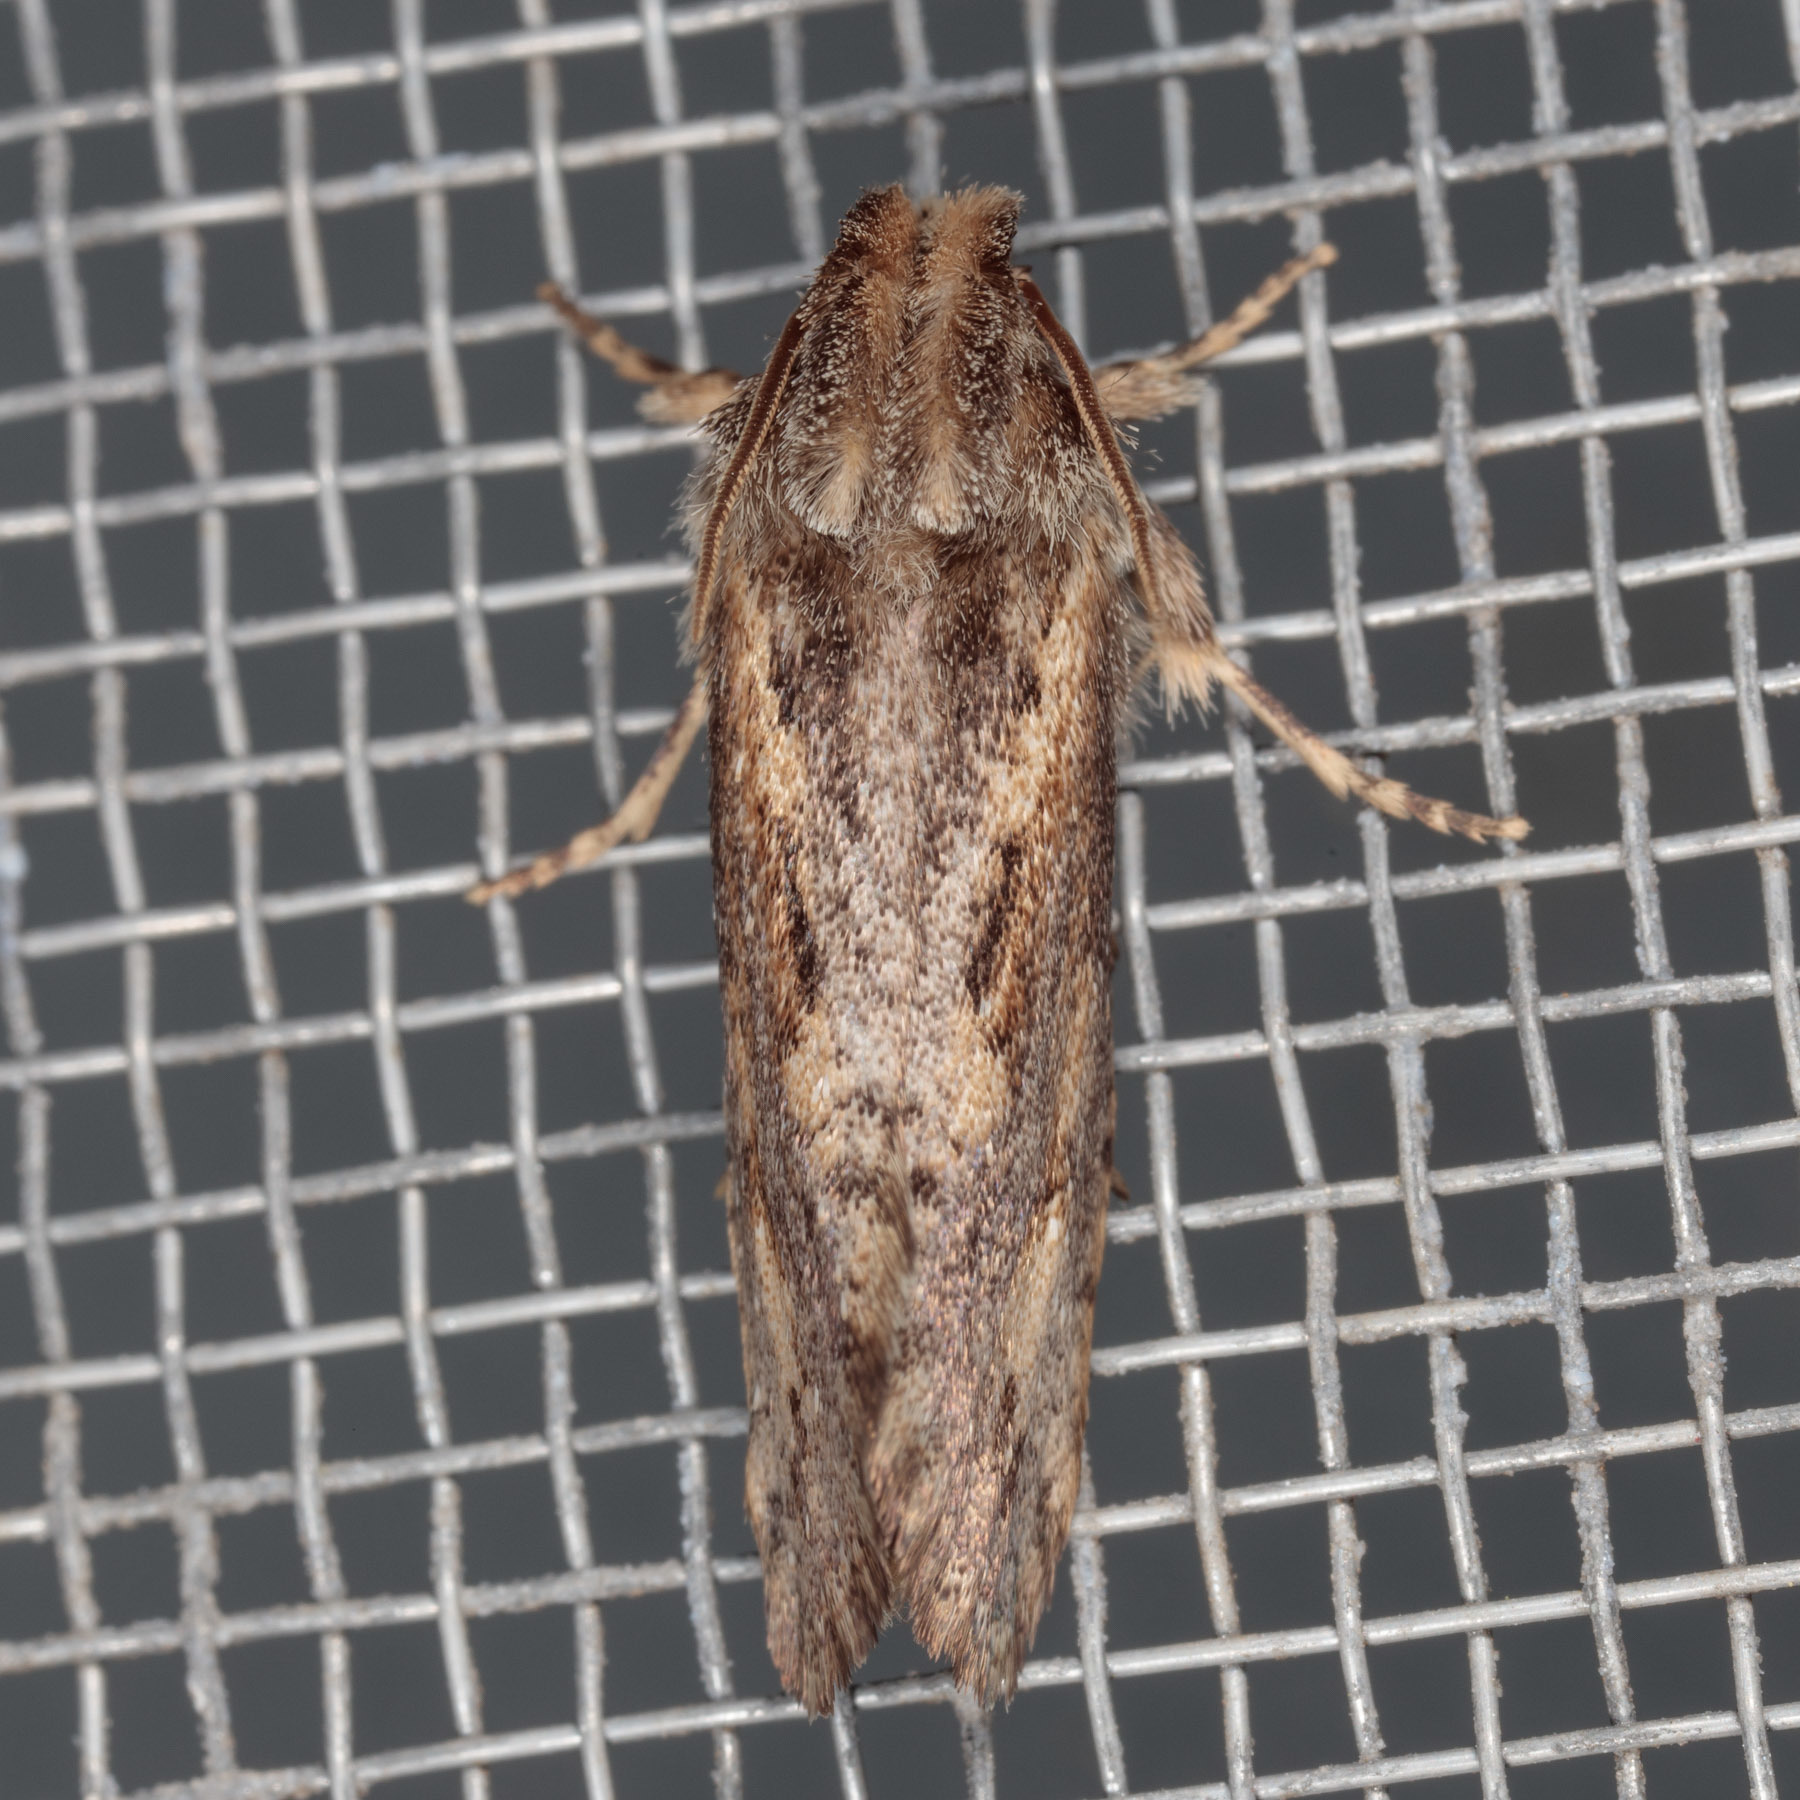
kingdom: Animalia
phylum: Arthropoda
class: Insecta
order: Lepidoptera
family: Tineidae
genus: Acrolophus
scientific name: Acrolophus popeanella
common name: Clemens' grass tubeworm moth
